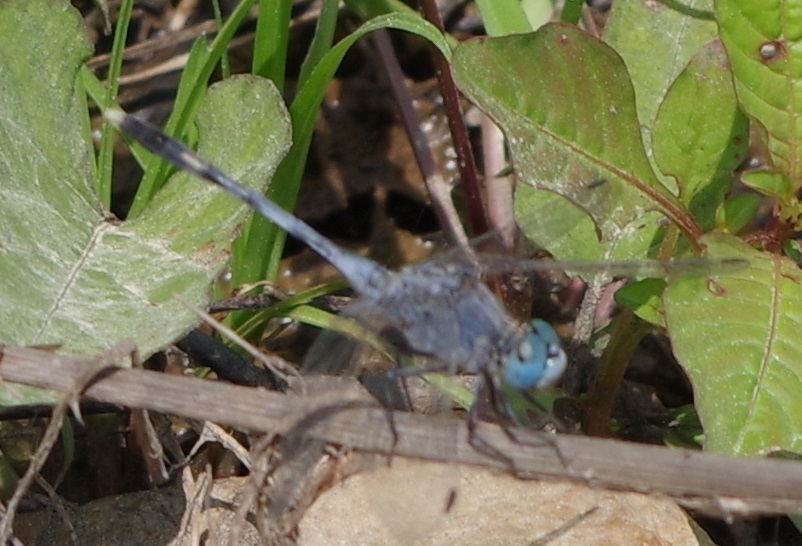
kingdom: Animalia
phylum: Arthropoda
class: Insecta
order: Odonata
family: Libellulidae
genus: Diplacodes
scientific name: Diplacodes trivialis
